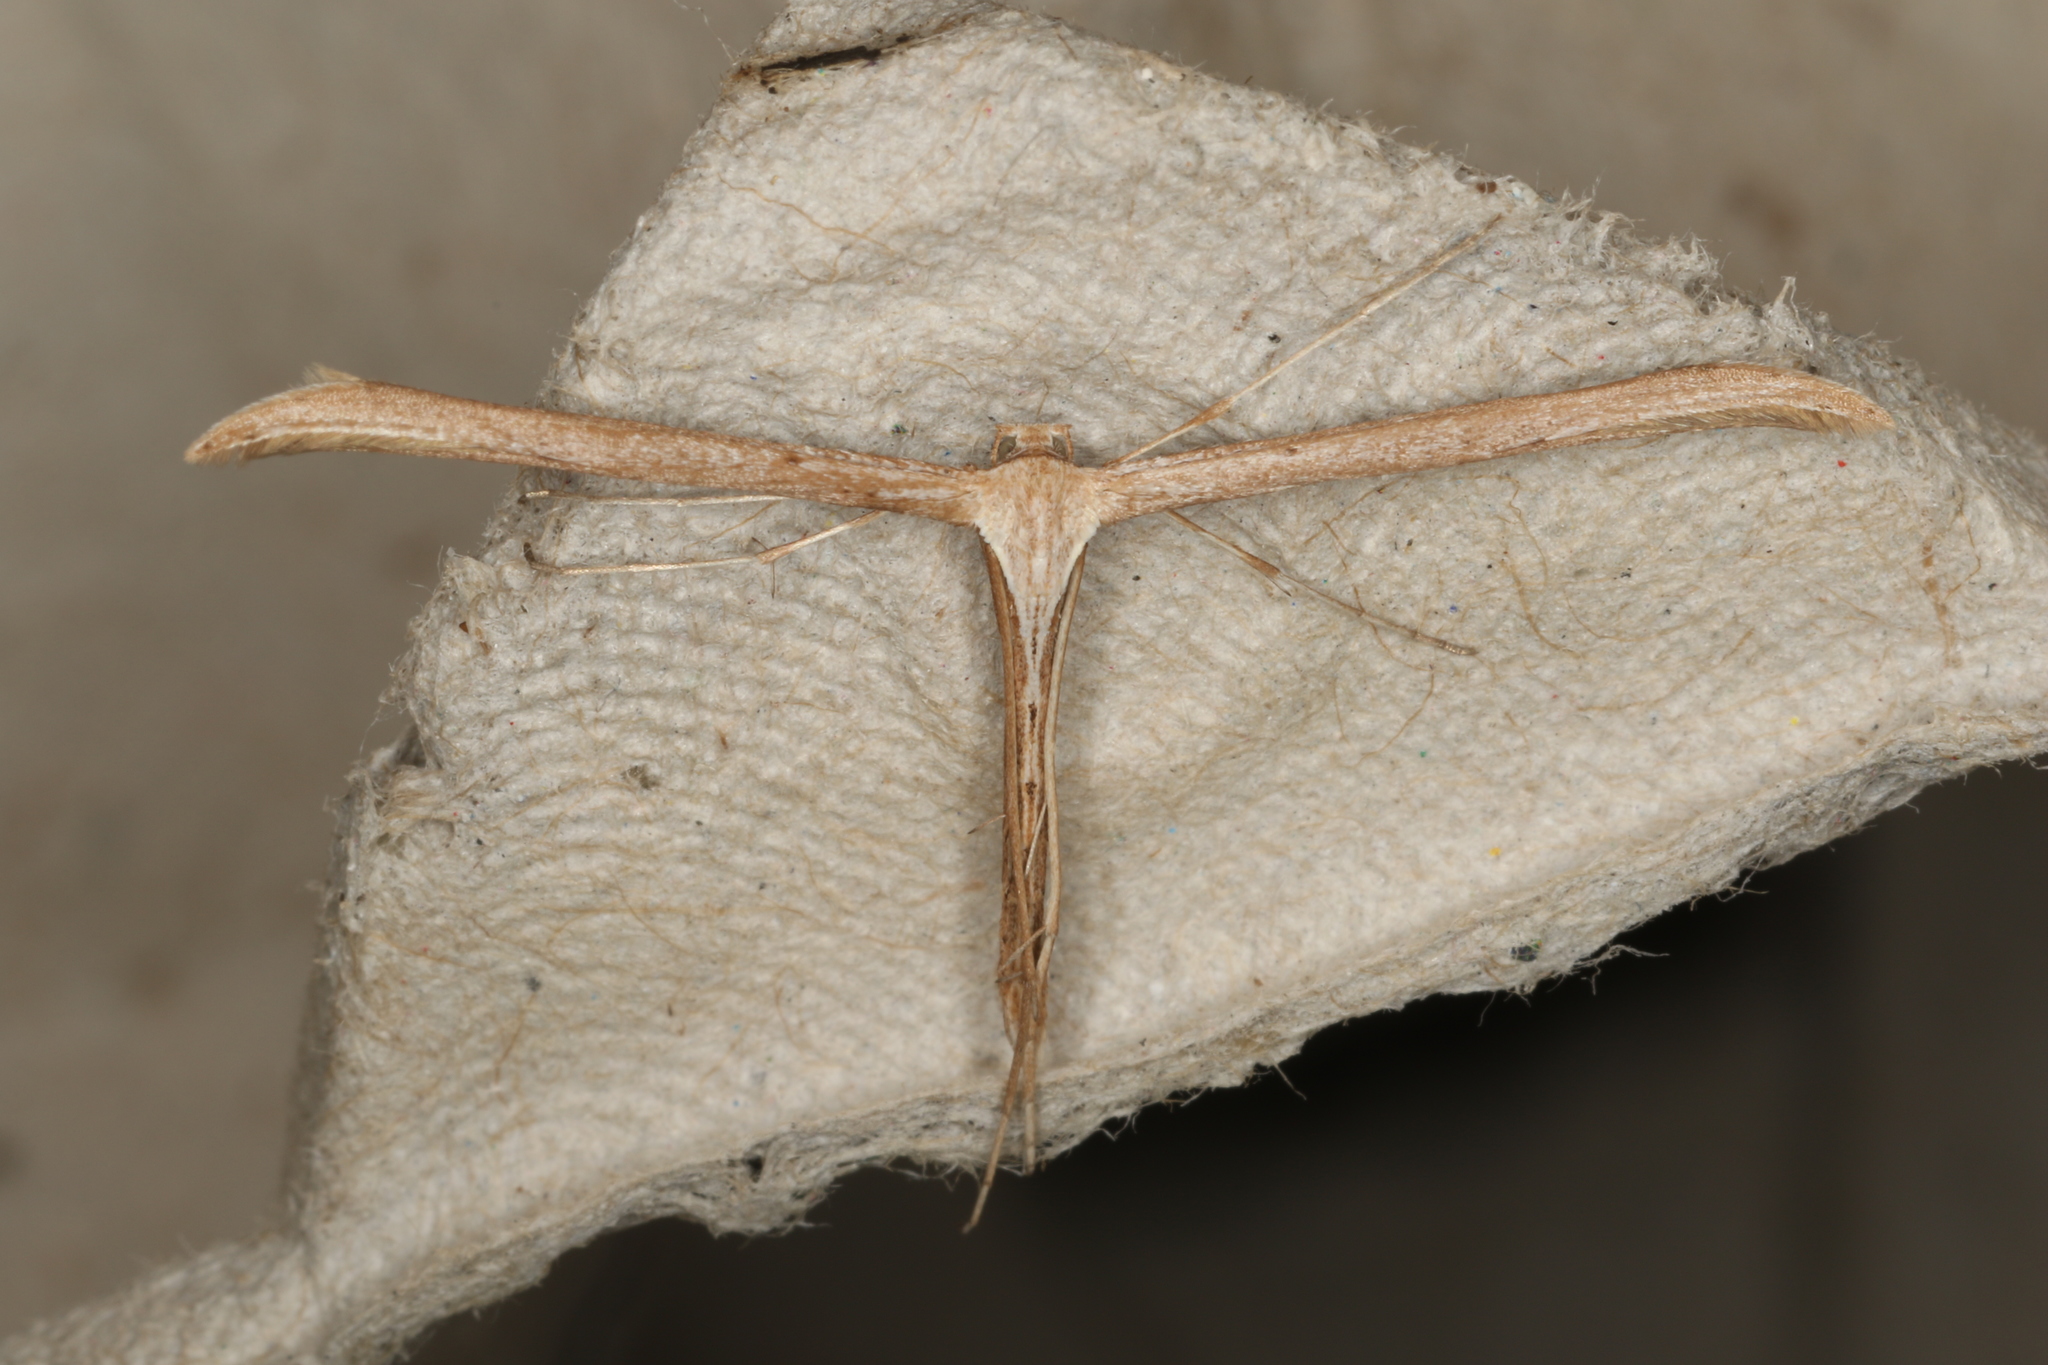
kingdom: Animalia
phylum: Arthropoda
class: Insecta
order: Lepidoptera
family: Pterophoridae
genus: Emmelina
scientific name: Emmelina monodactyla
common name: Common plume
